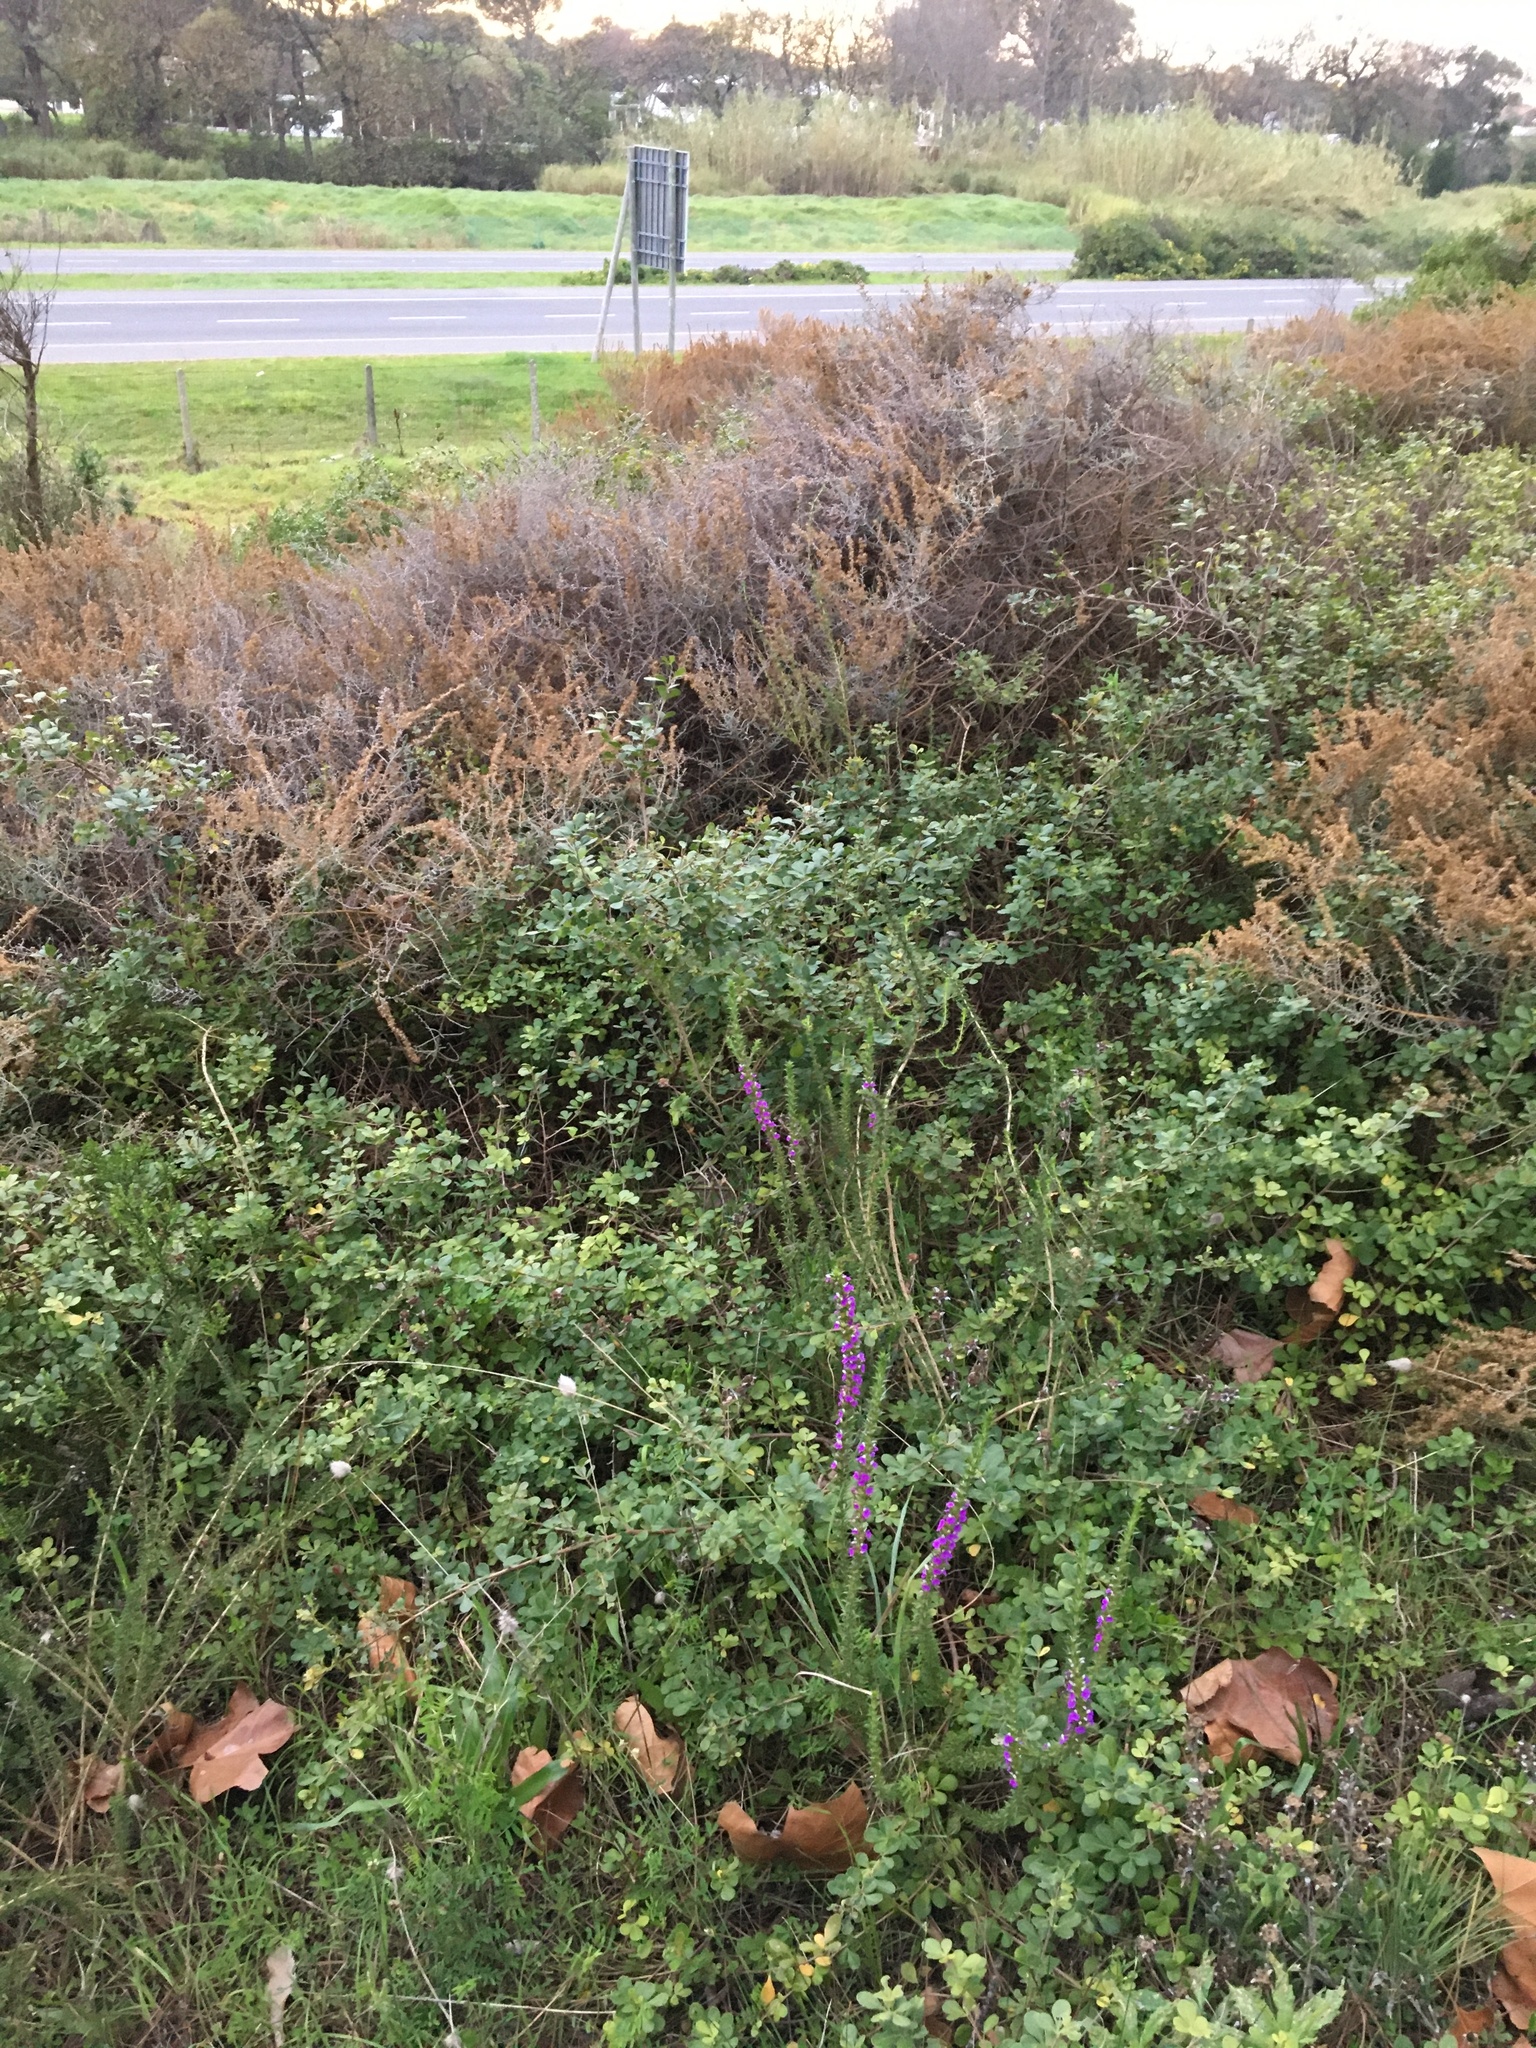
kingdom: Plantae
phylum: Tracheophyta
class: Magnoliopsida
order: Fabales
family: Polygalaceae
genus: Muraltia
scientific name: Muraltia heisteria
